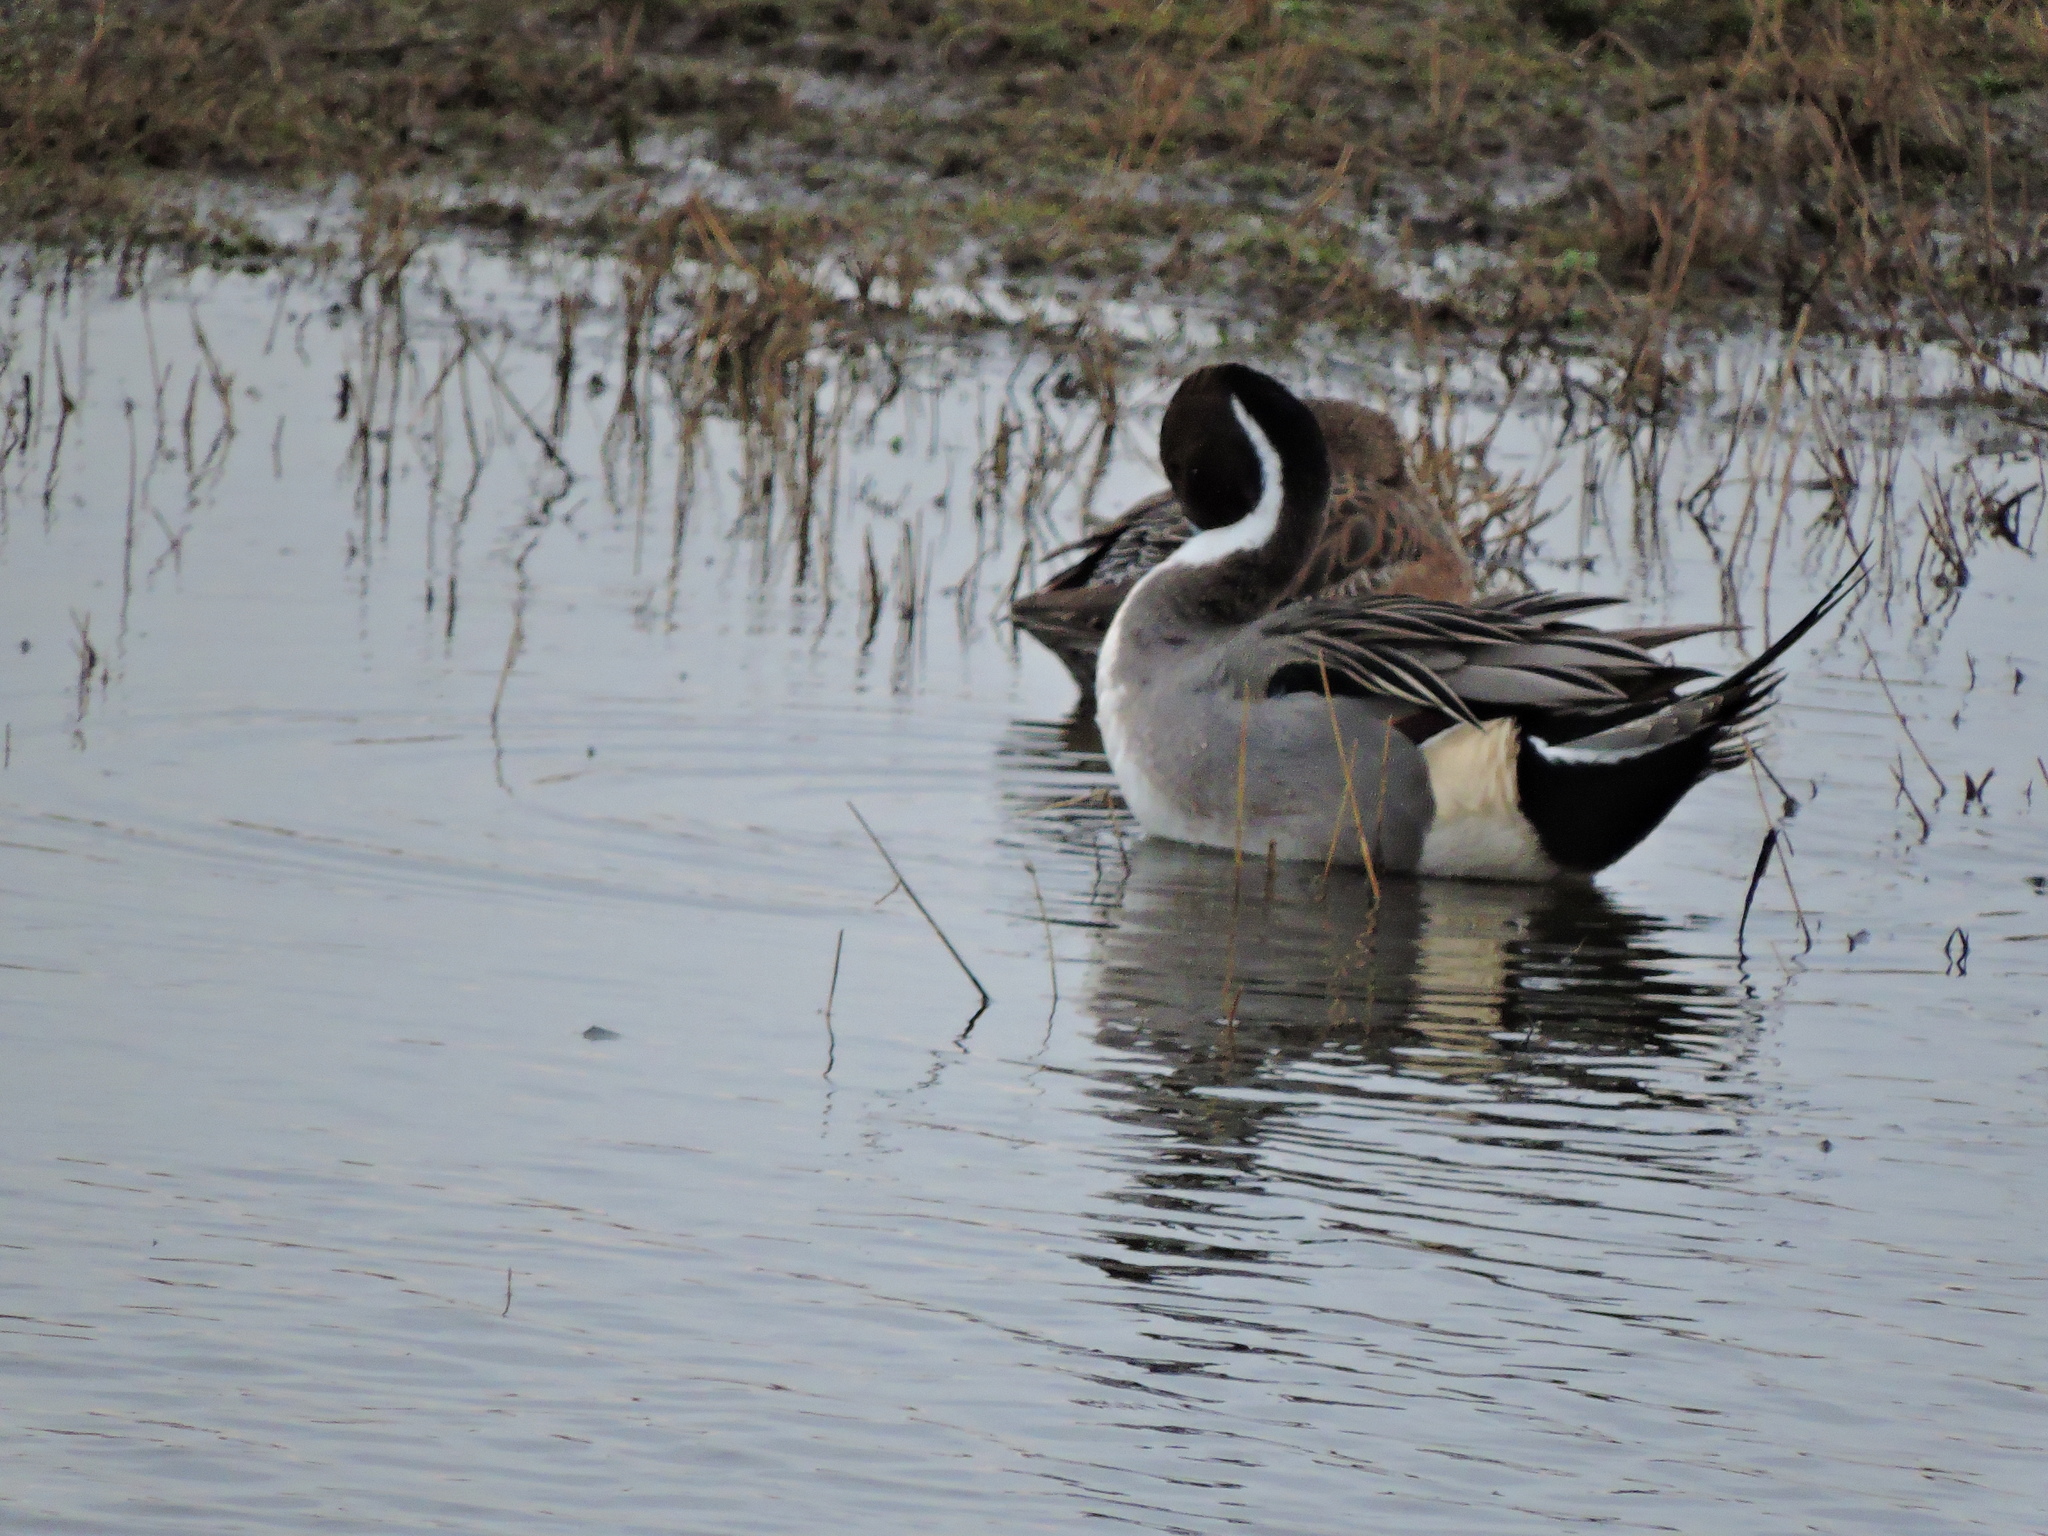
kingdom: Animalia
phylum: Chordata
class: Aves
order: Anseriformes
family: Anatidae
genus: Anas
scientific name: Anas acuta
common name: Northern pintail
